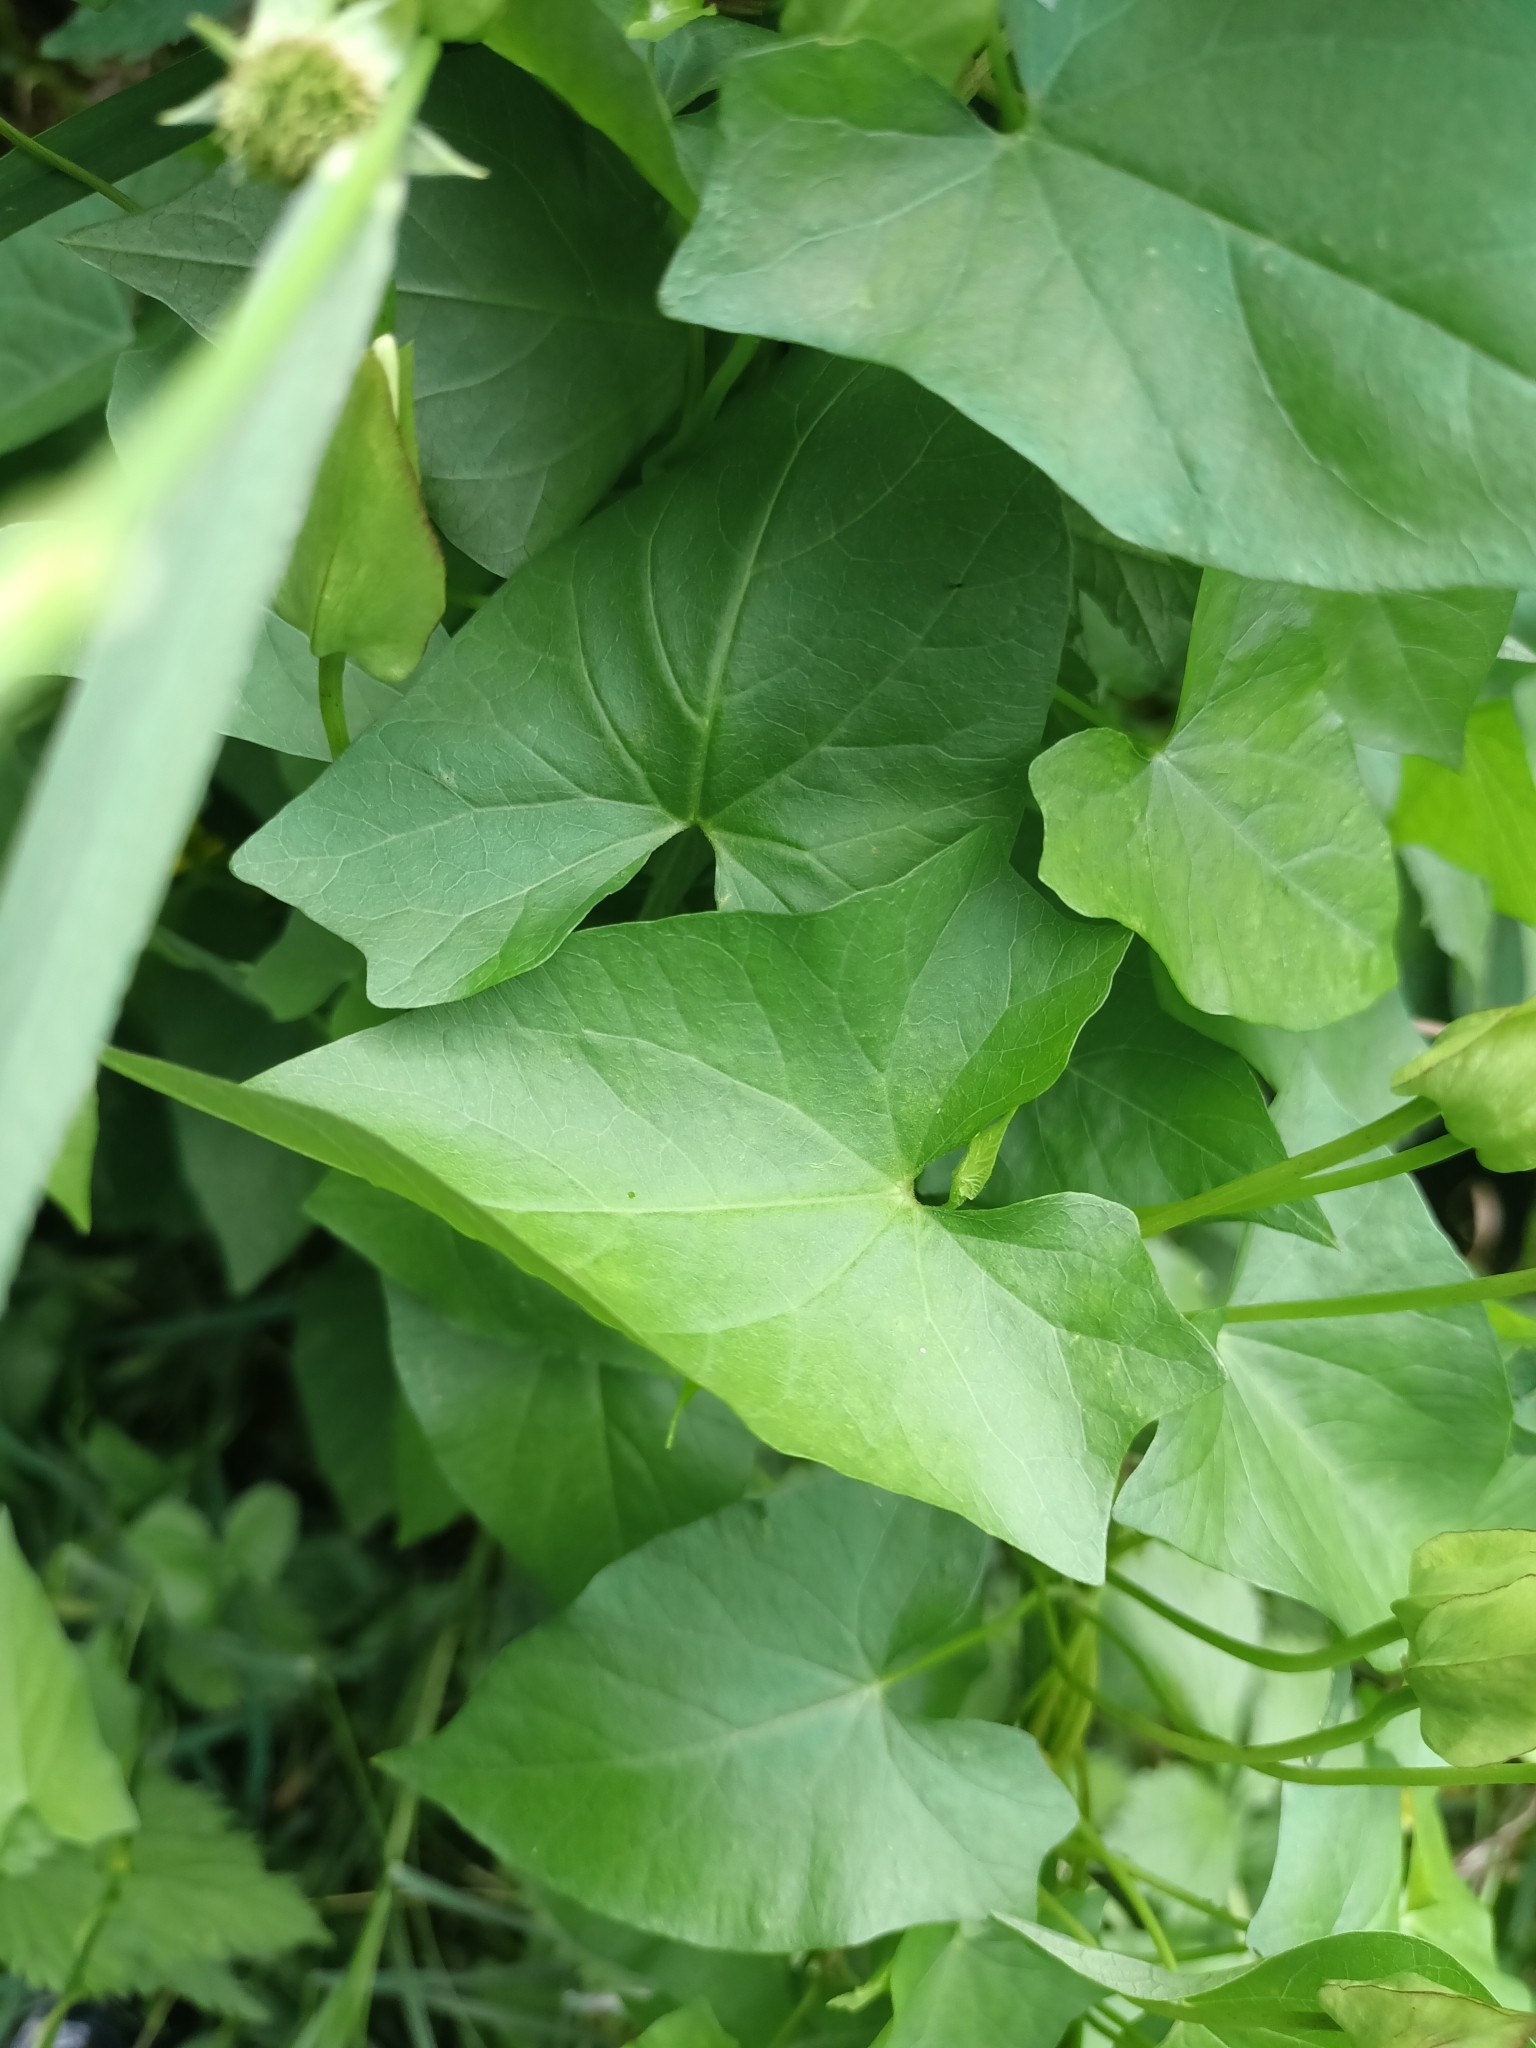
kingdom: Plantae
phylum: Tracheophyta
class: Magnoliopsida
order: Solanales
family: Convolvulaceae
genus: Calystegia
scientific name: Calystegia sepium
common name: Hedge bindweed
